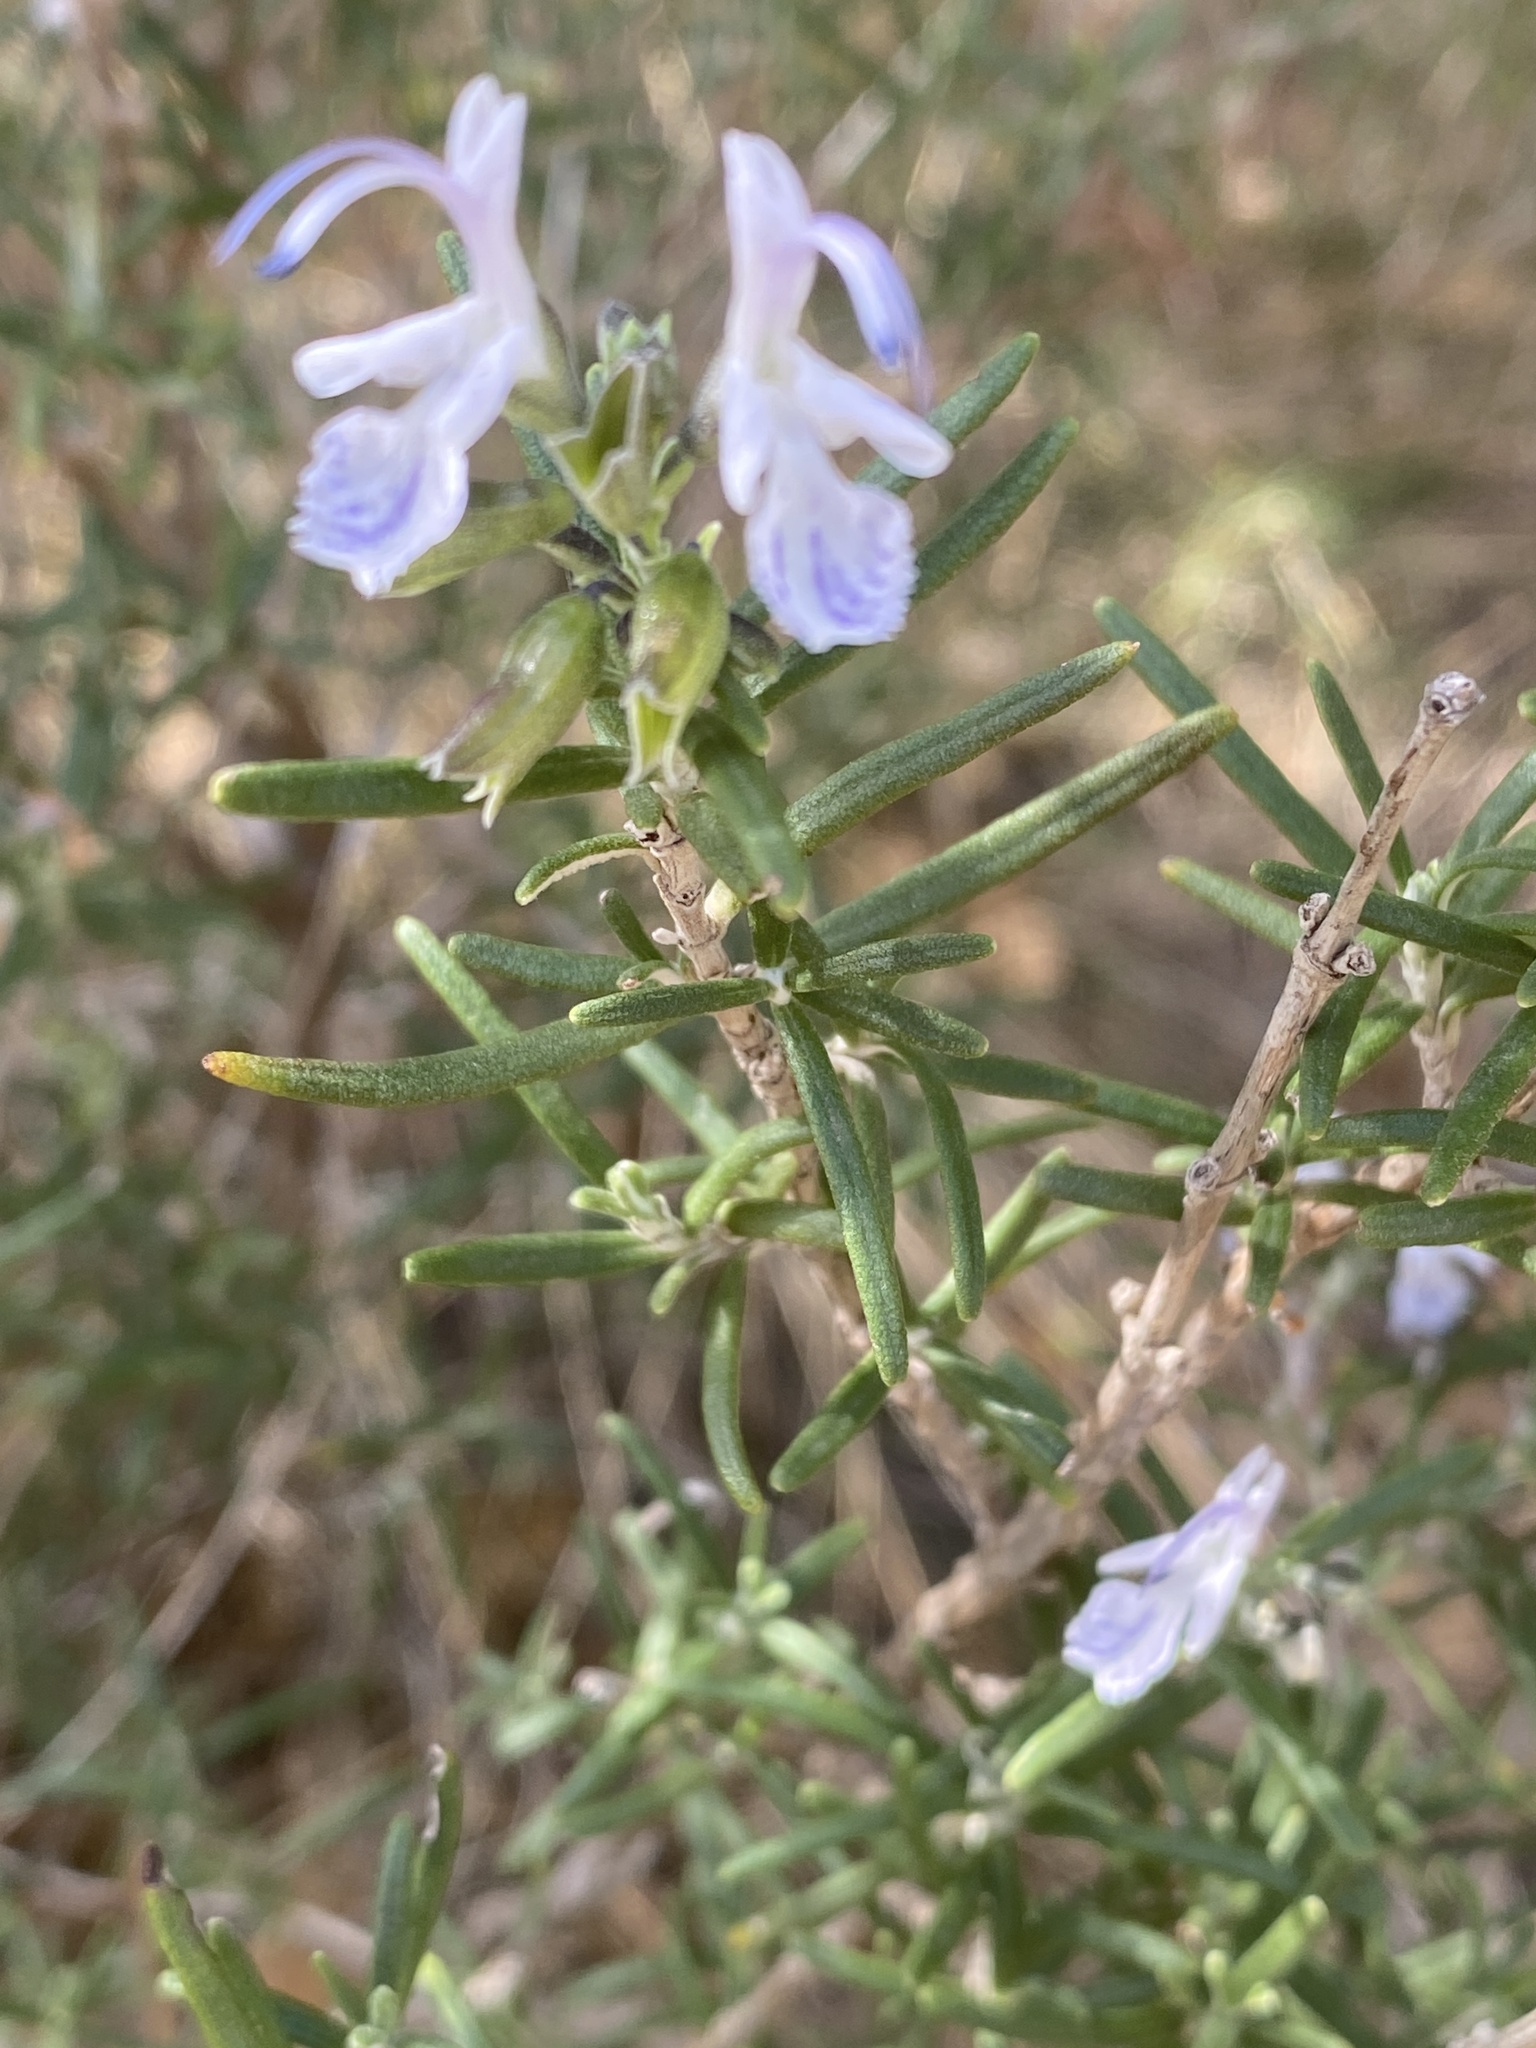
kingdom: Plantae
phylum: Tracheophyta
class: Magnoliopsida
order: Lamiales
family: Lamiaceae
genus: Salvia
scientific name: Salvia rosmarinus
